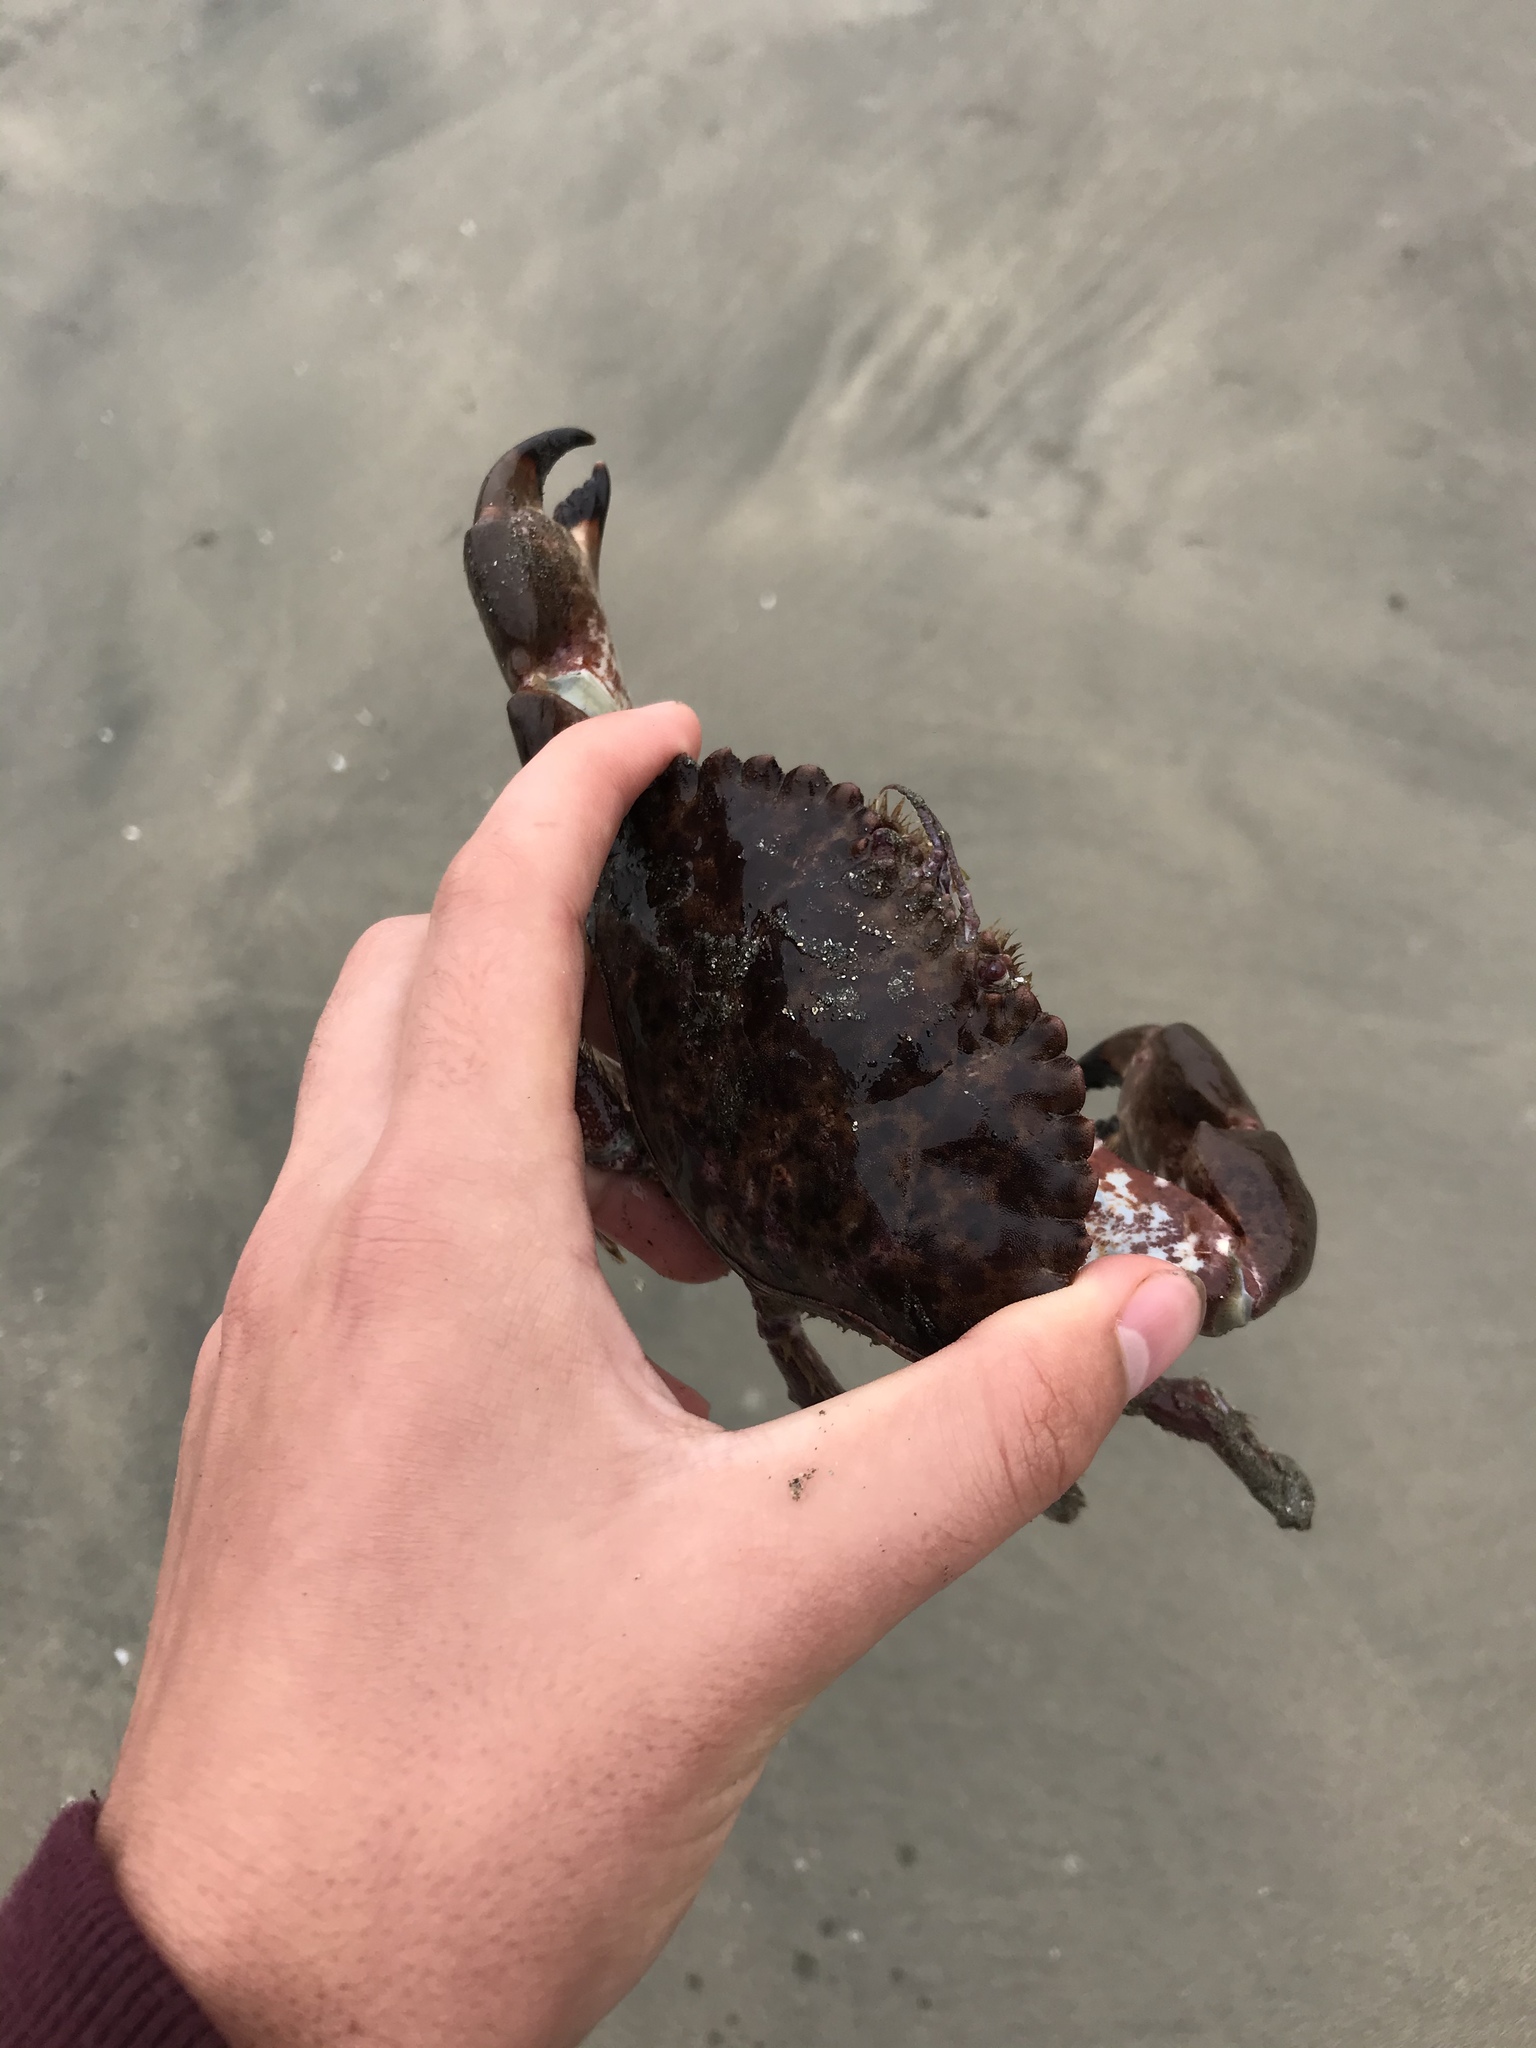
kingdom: Animalia
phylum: Arthropoda
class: Malacostraca
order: Decapoda
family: Cancridae
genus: Romaleon
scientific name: Romaleon antennarium
